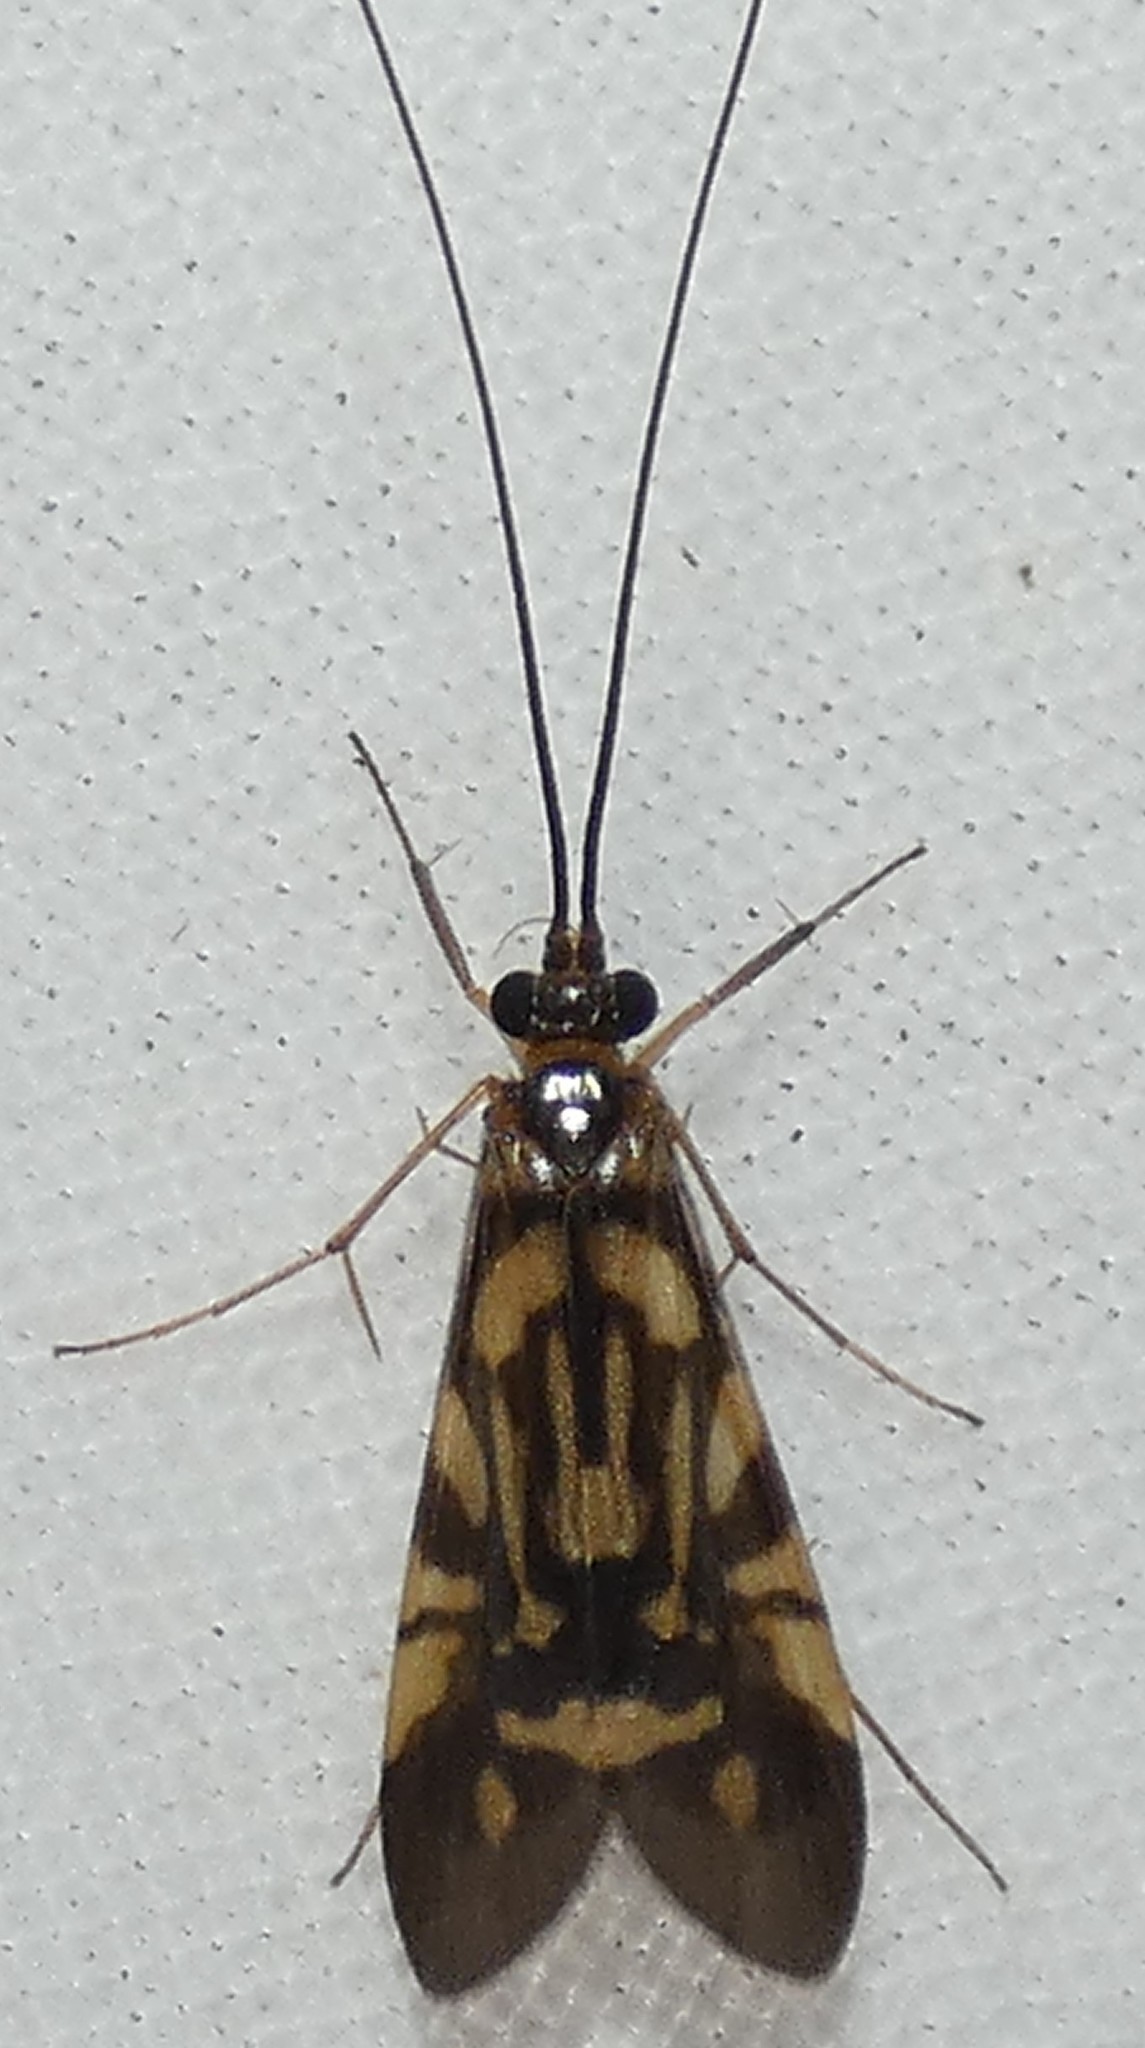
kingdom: Animalia
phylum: Arthropoda
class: Insecta
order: Trichoptera
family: Hydropsychidae
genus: Macrostemum
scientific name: Macrostemum carolina
